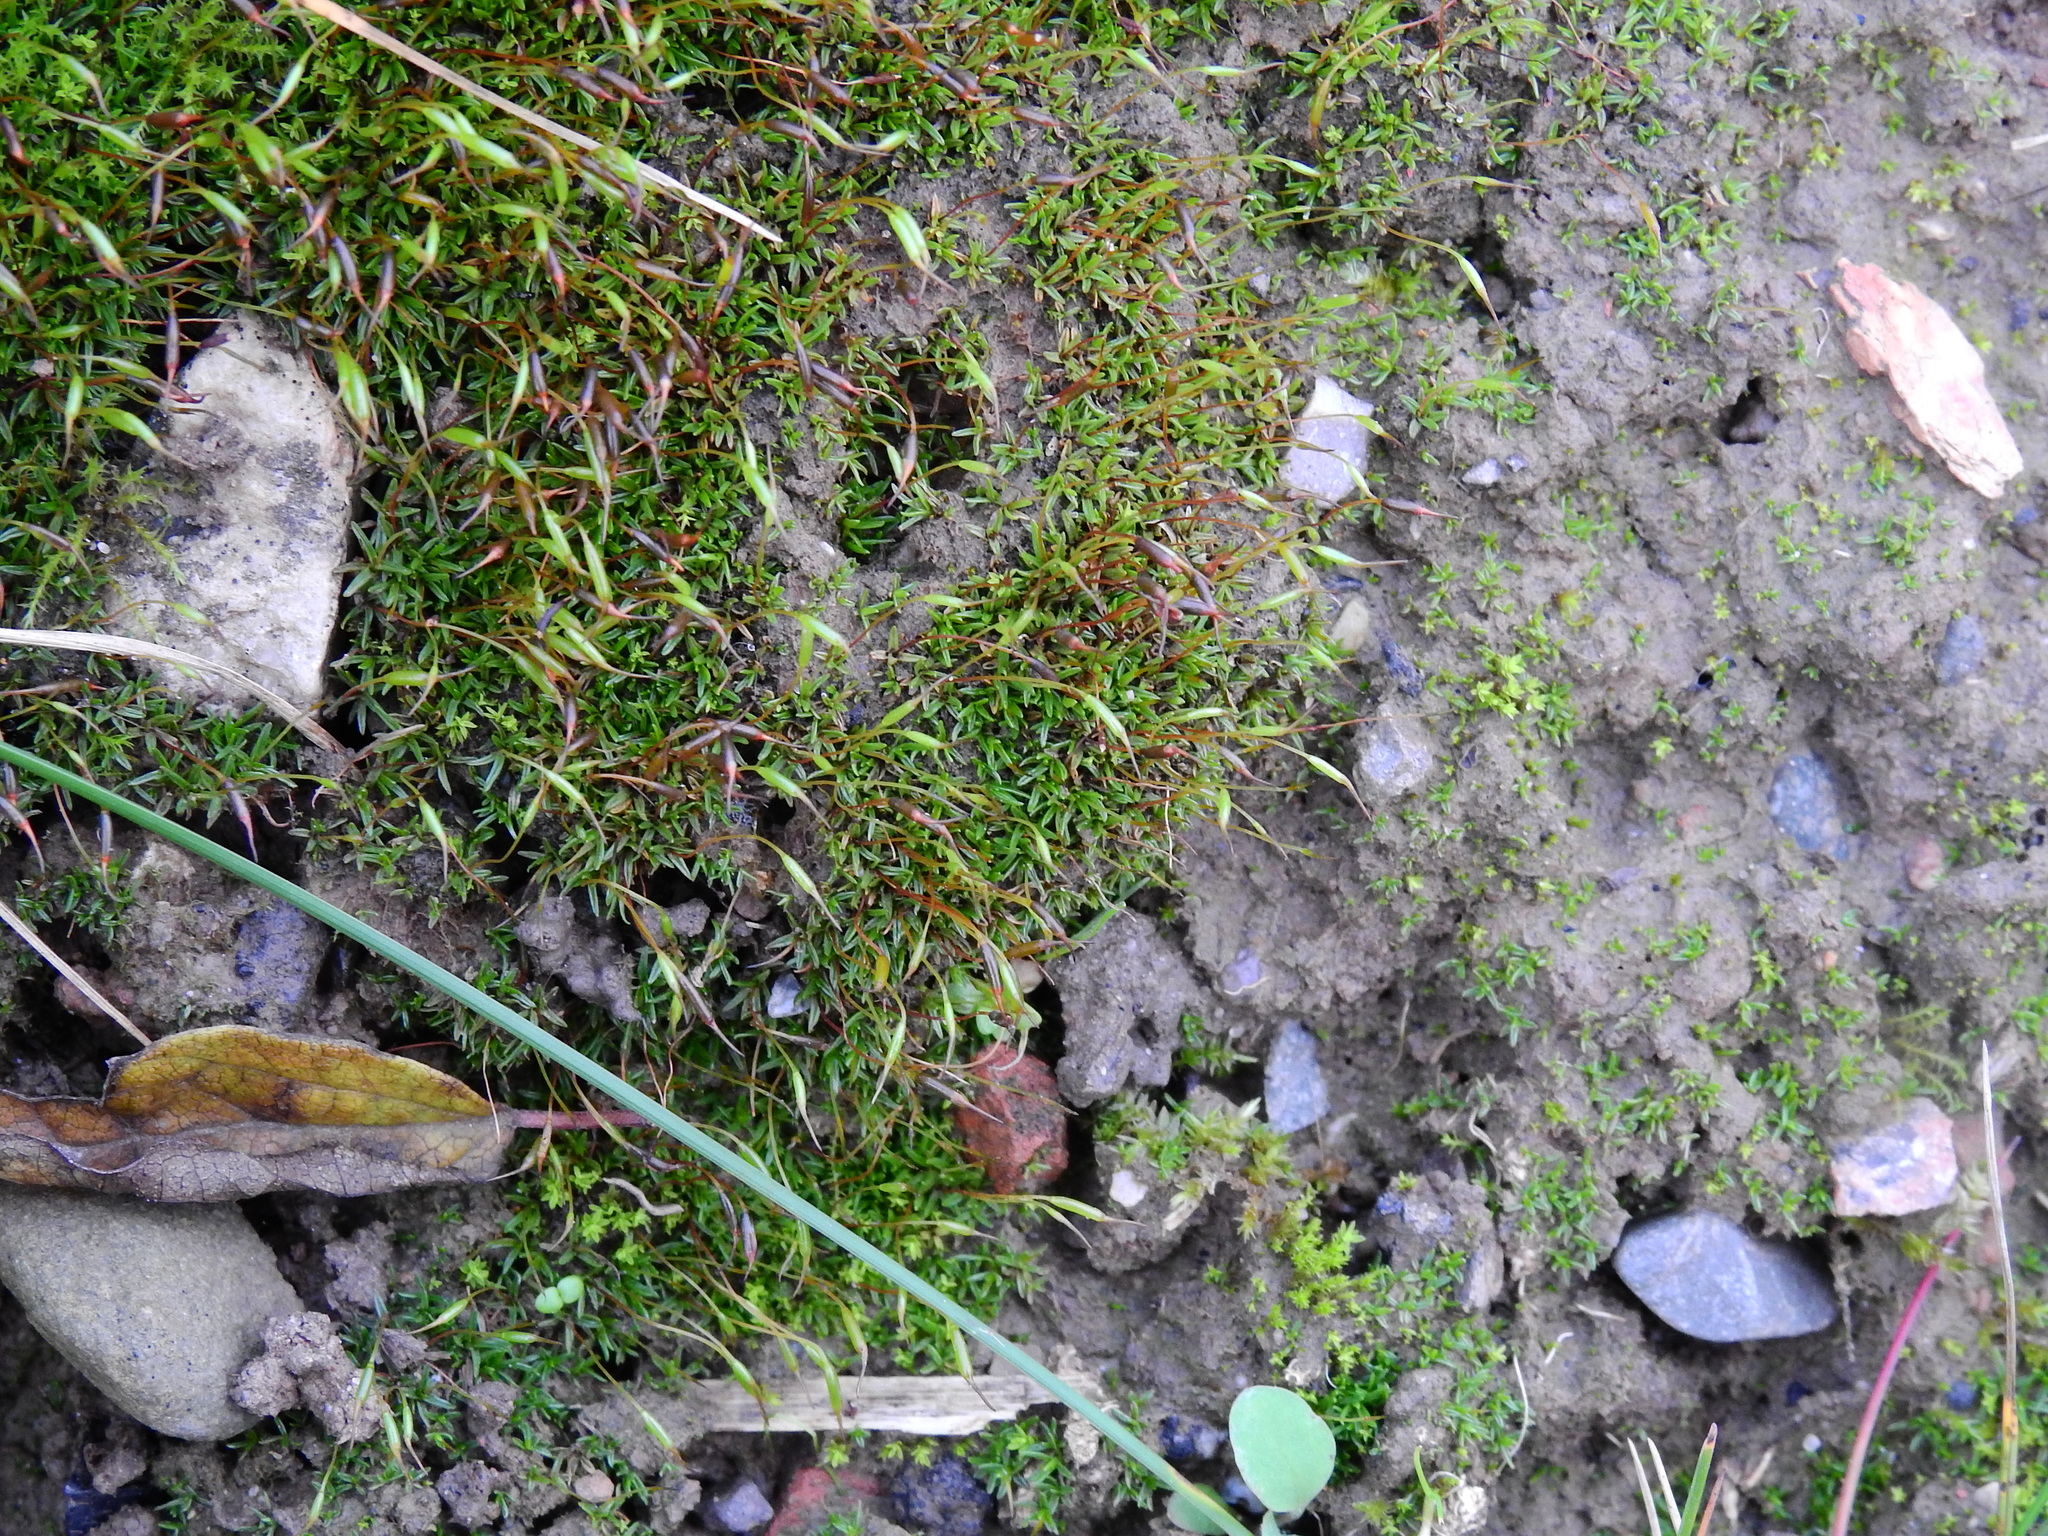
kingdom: Plantae
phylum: Bryophyta
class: Bryopsida
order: Pottiales
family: Pottiaceae
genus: Aloina
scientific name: Aloina aloides
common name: Common aloe-moss
